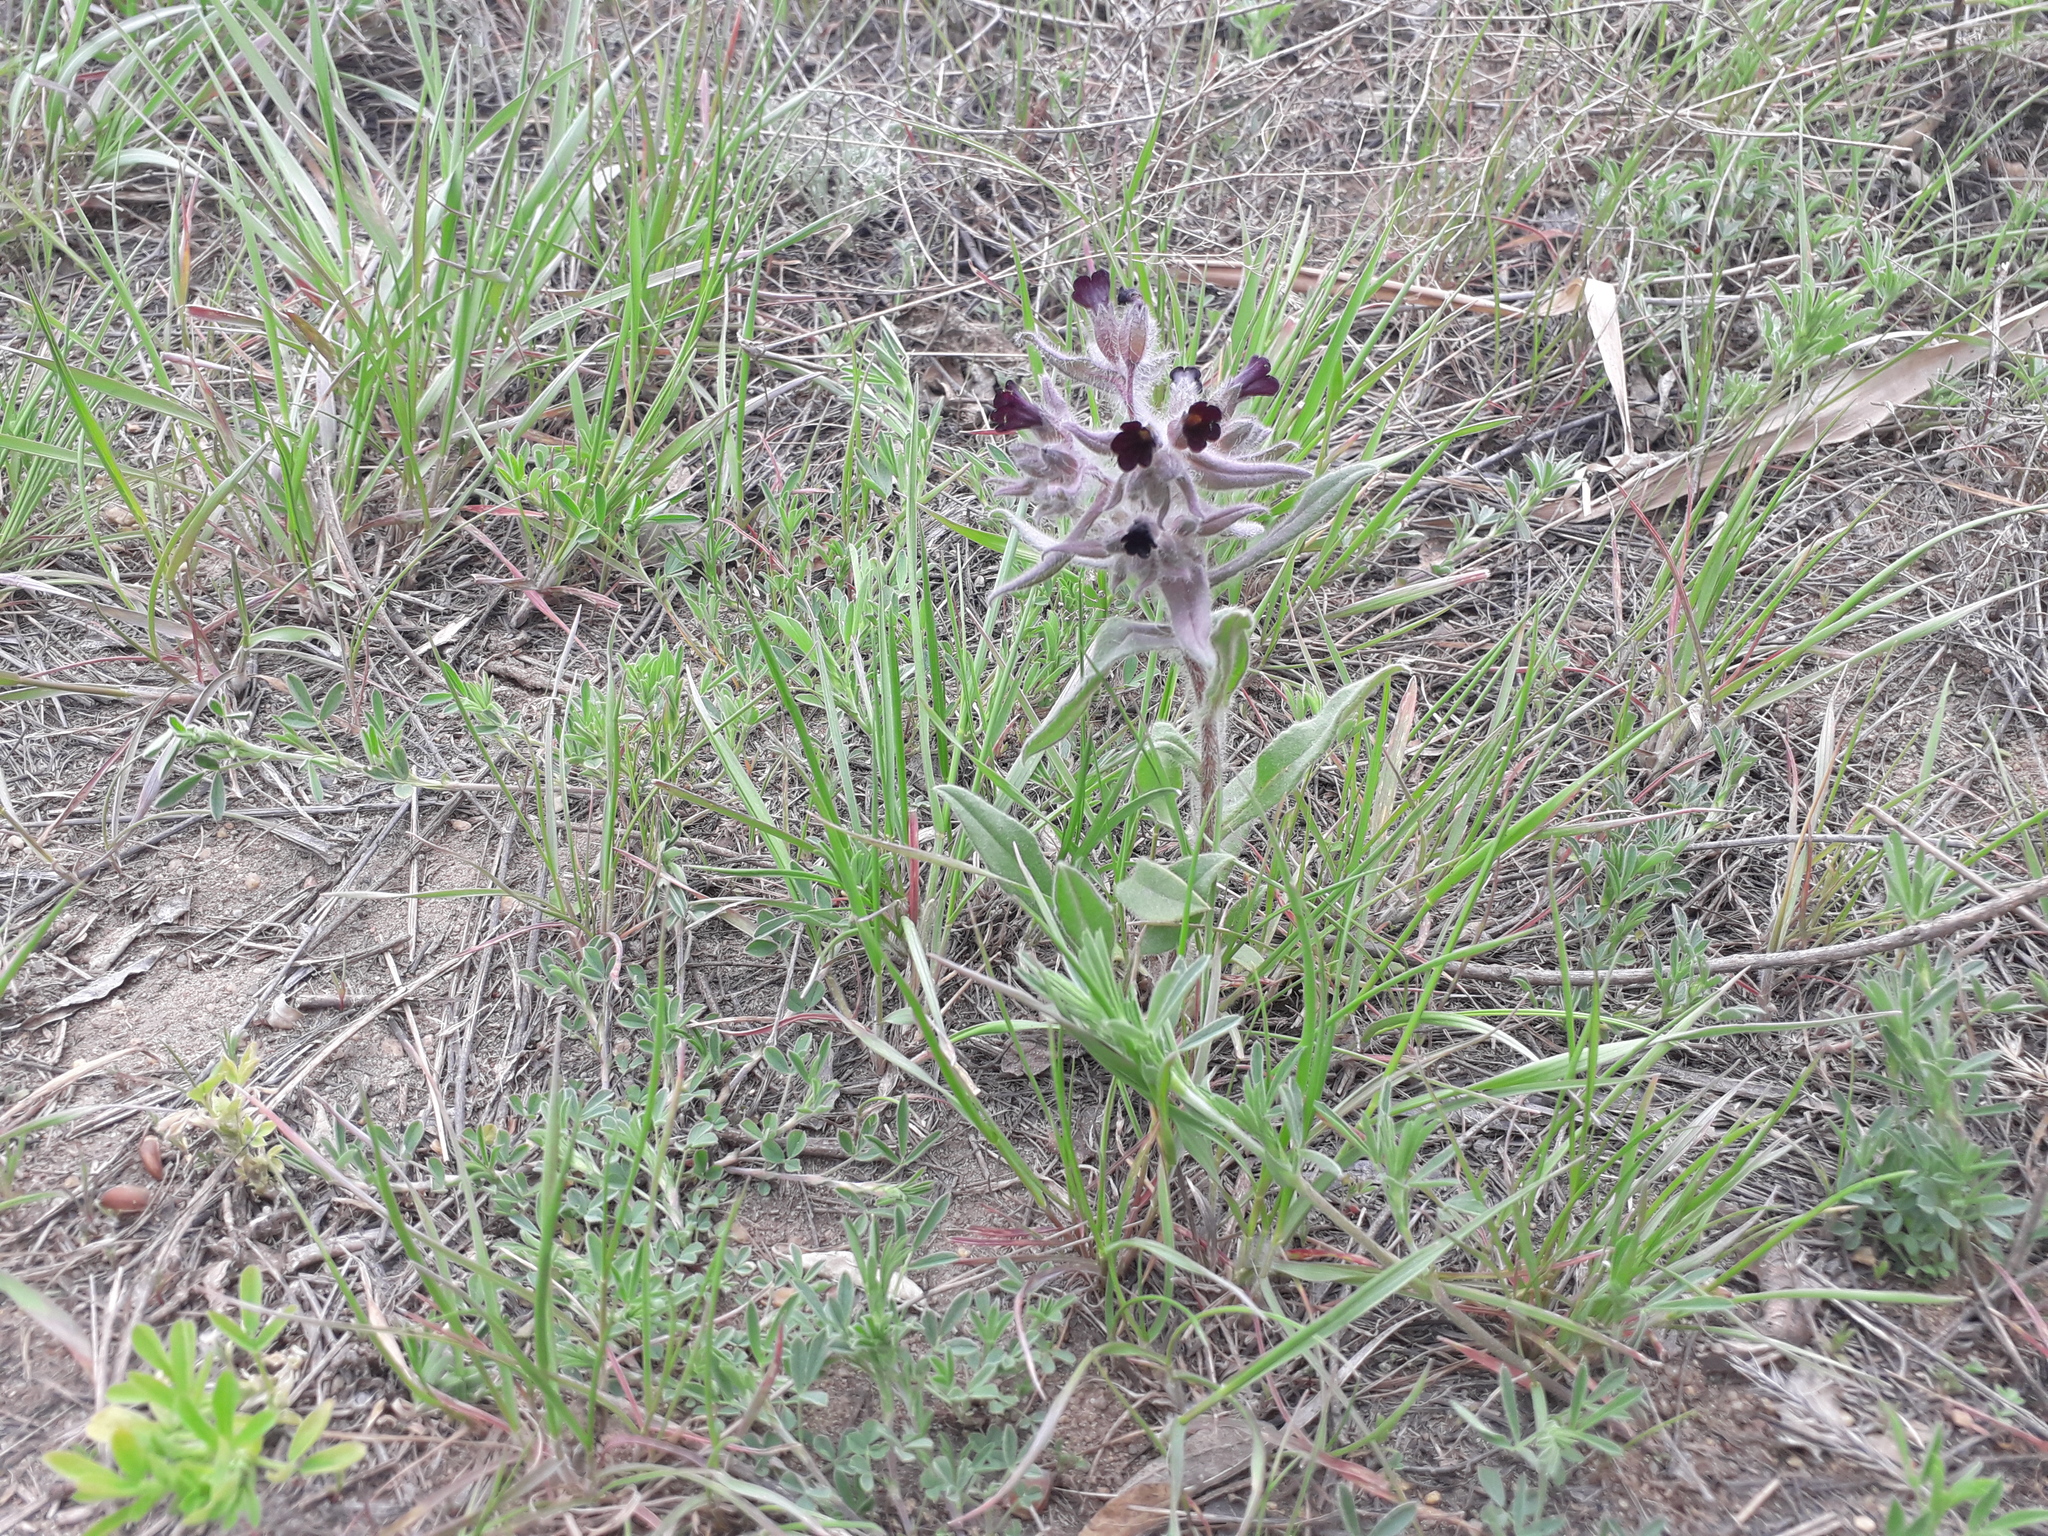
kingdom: Plantae
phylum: Tracheophyta
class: Magnoliopsida
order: Boraginales
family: Boraginaceae
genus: Nonea
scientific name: Nonea pulla
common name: Brown nonea
